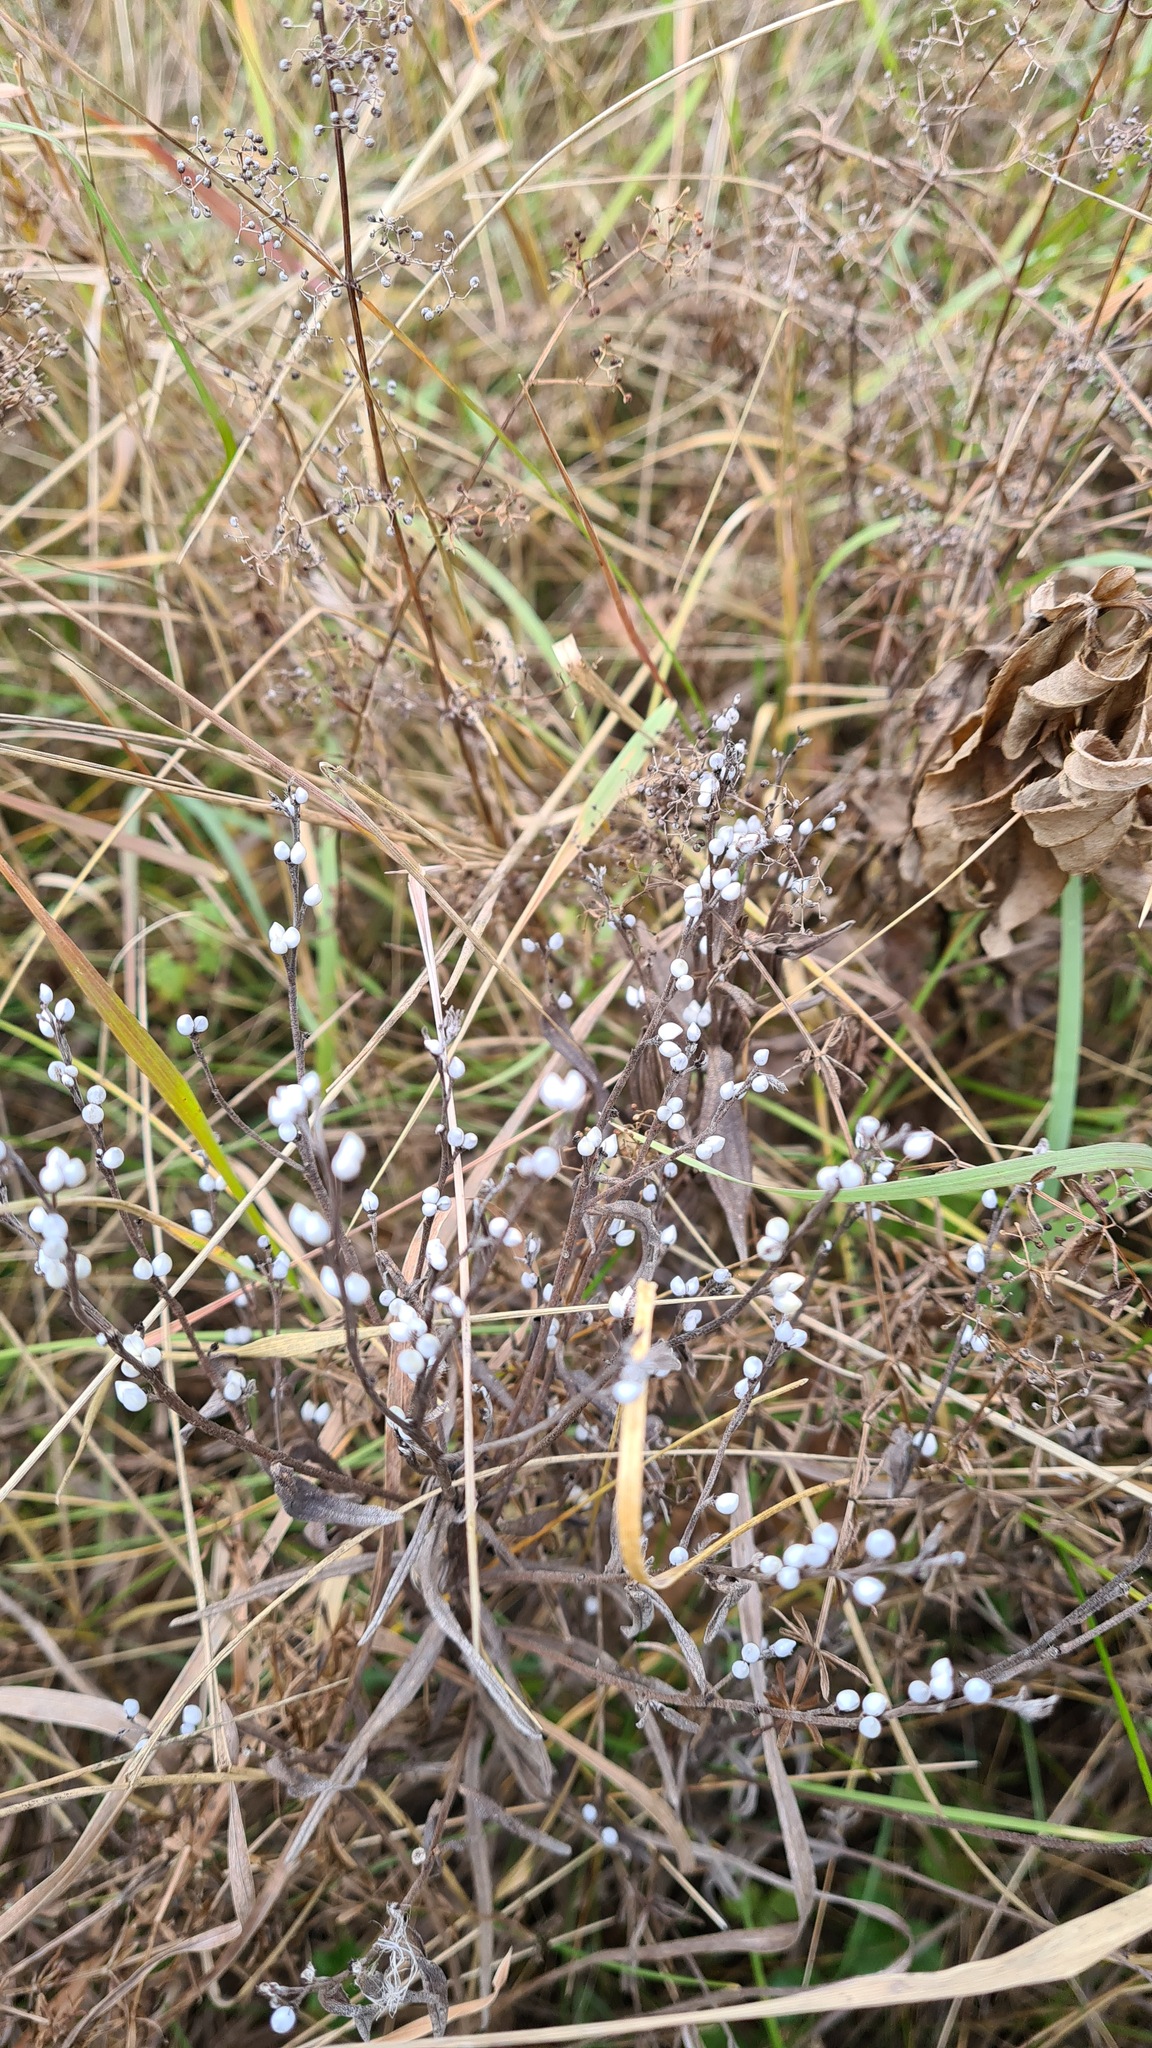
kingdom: Plantae
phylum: Tracheophyta
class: Magnoliopsida
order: Boraginales
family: Boraginaceae
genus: Lithospermum
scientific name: Lithospermum officinale
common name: Common gromwell
